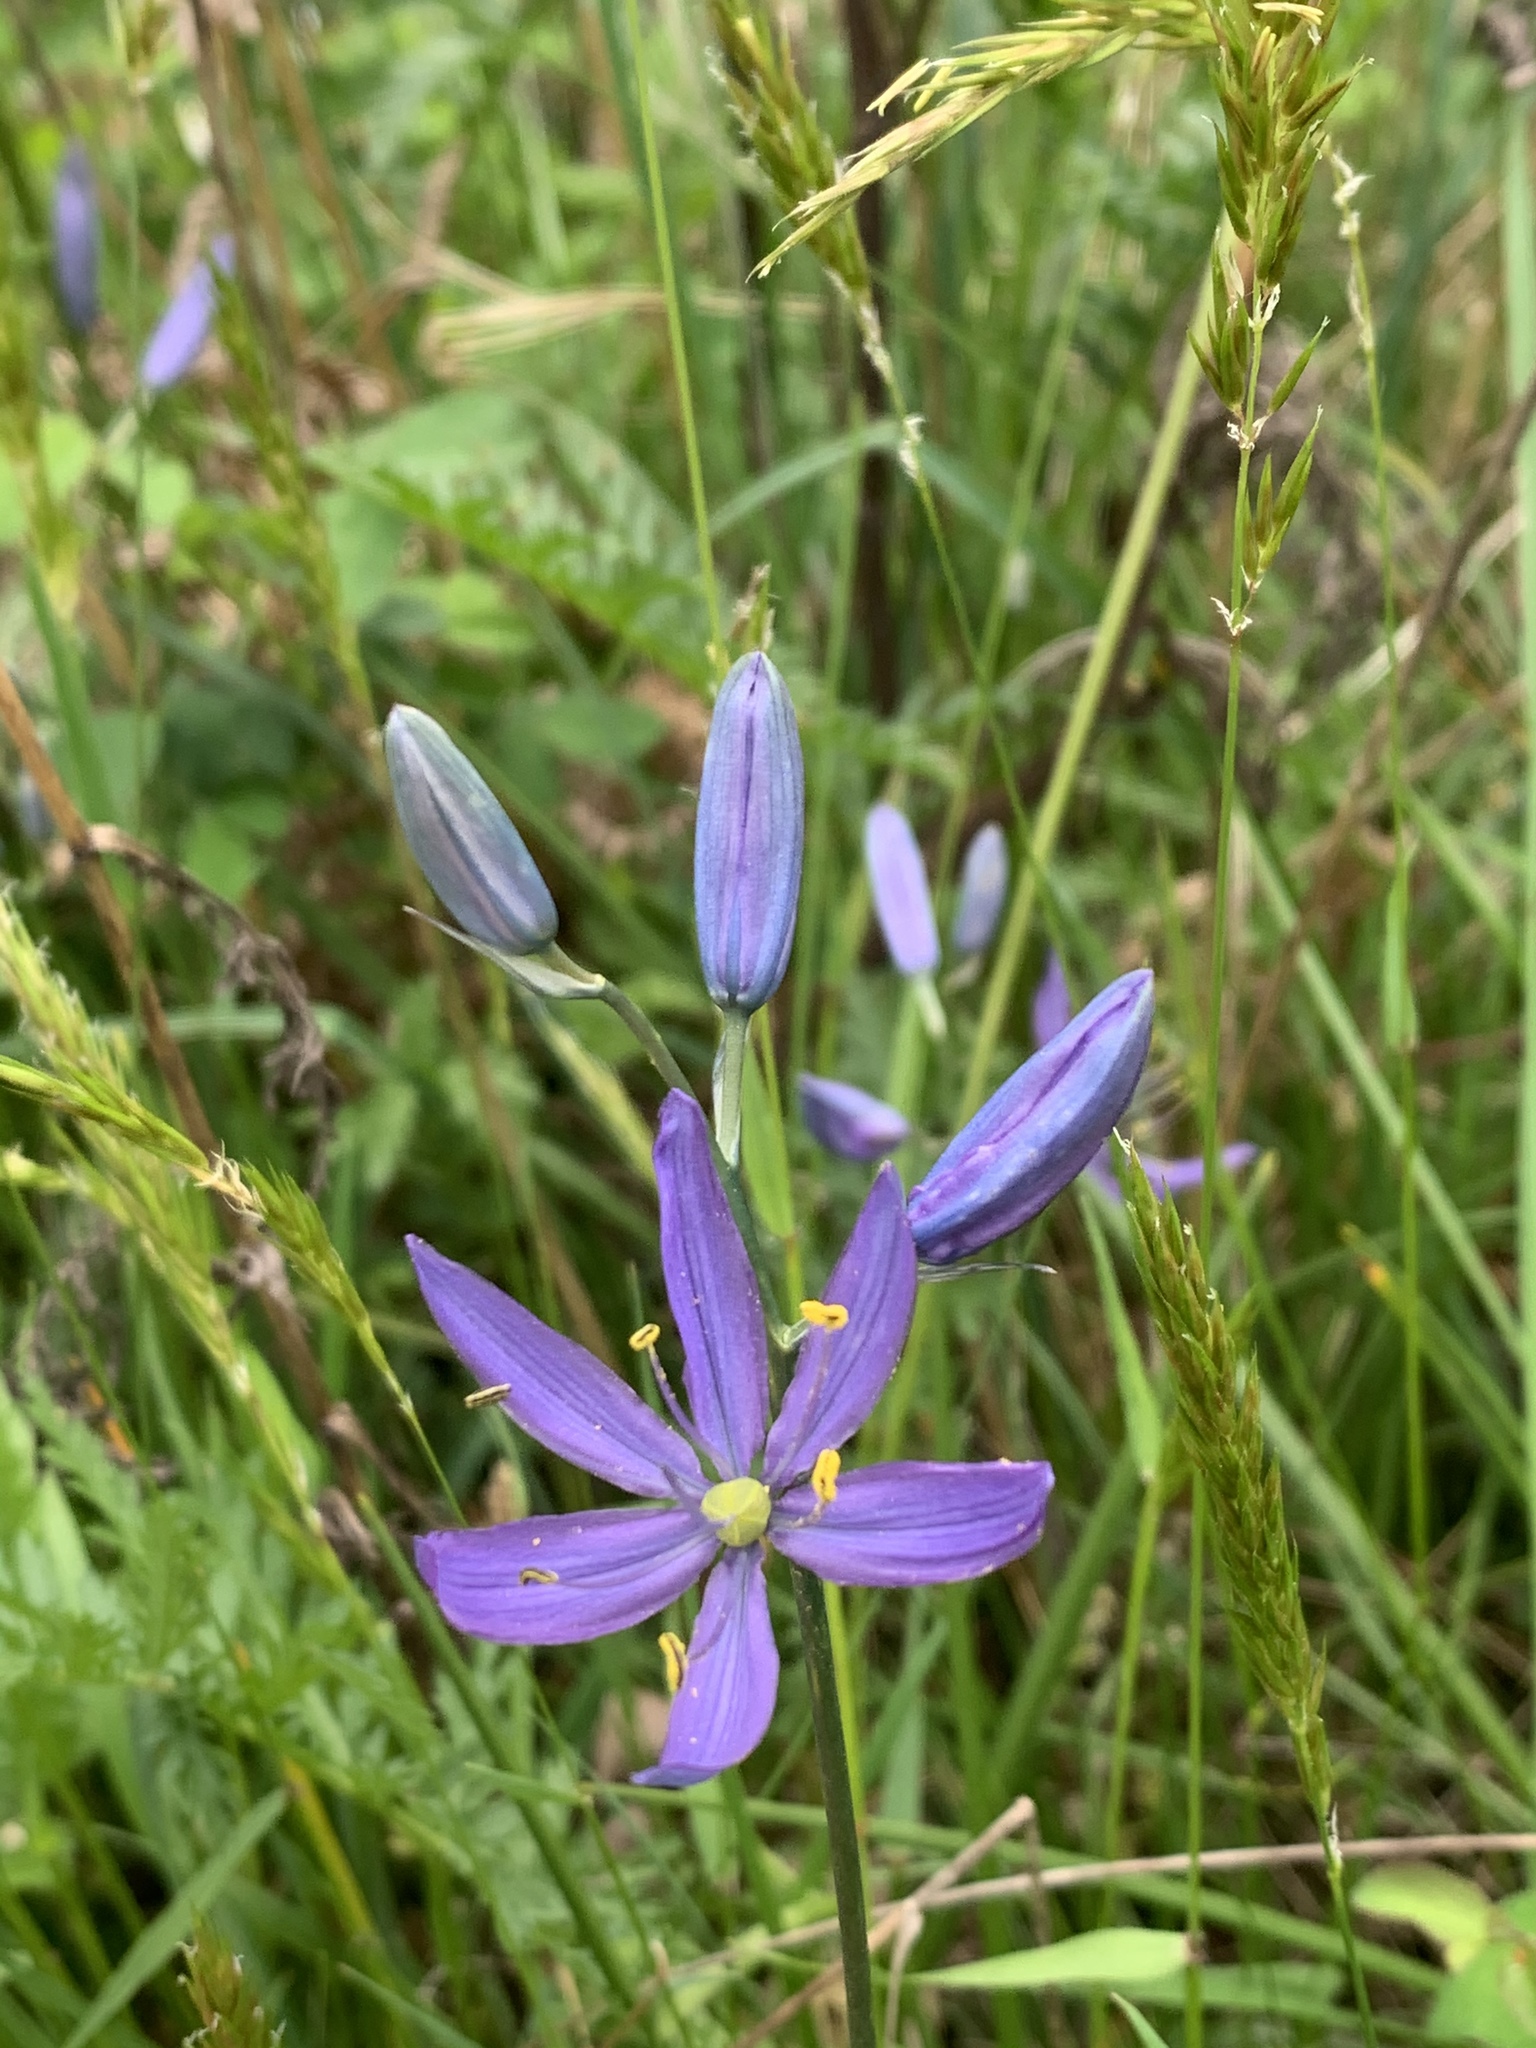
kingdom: Plantae
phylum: Tracheophyta
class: Liliopsida
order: Asparagales
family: Asparagaceae
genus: Camassia
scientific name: Camassia quamash
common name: Common camas
